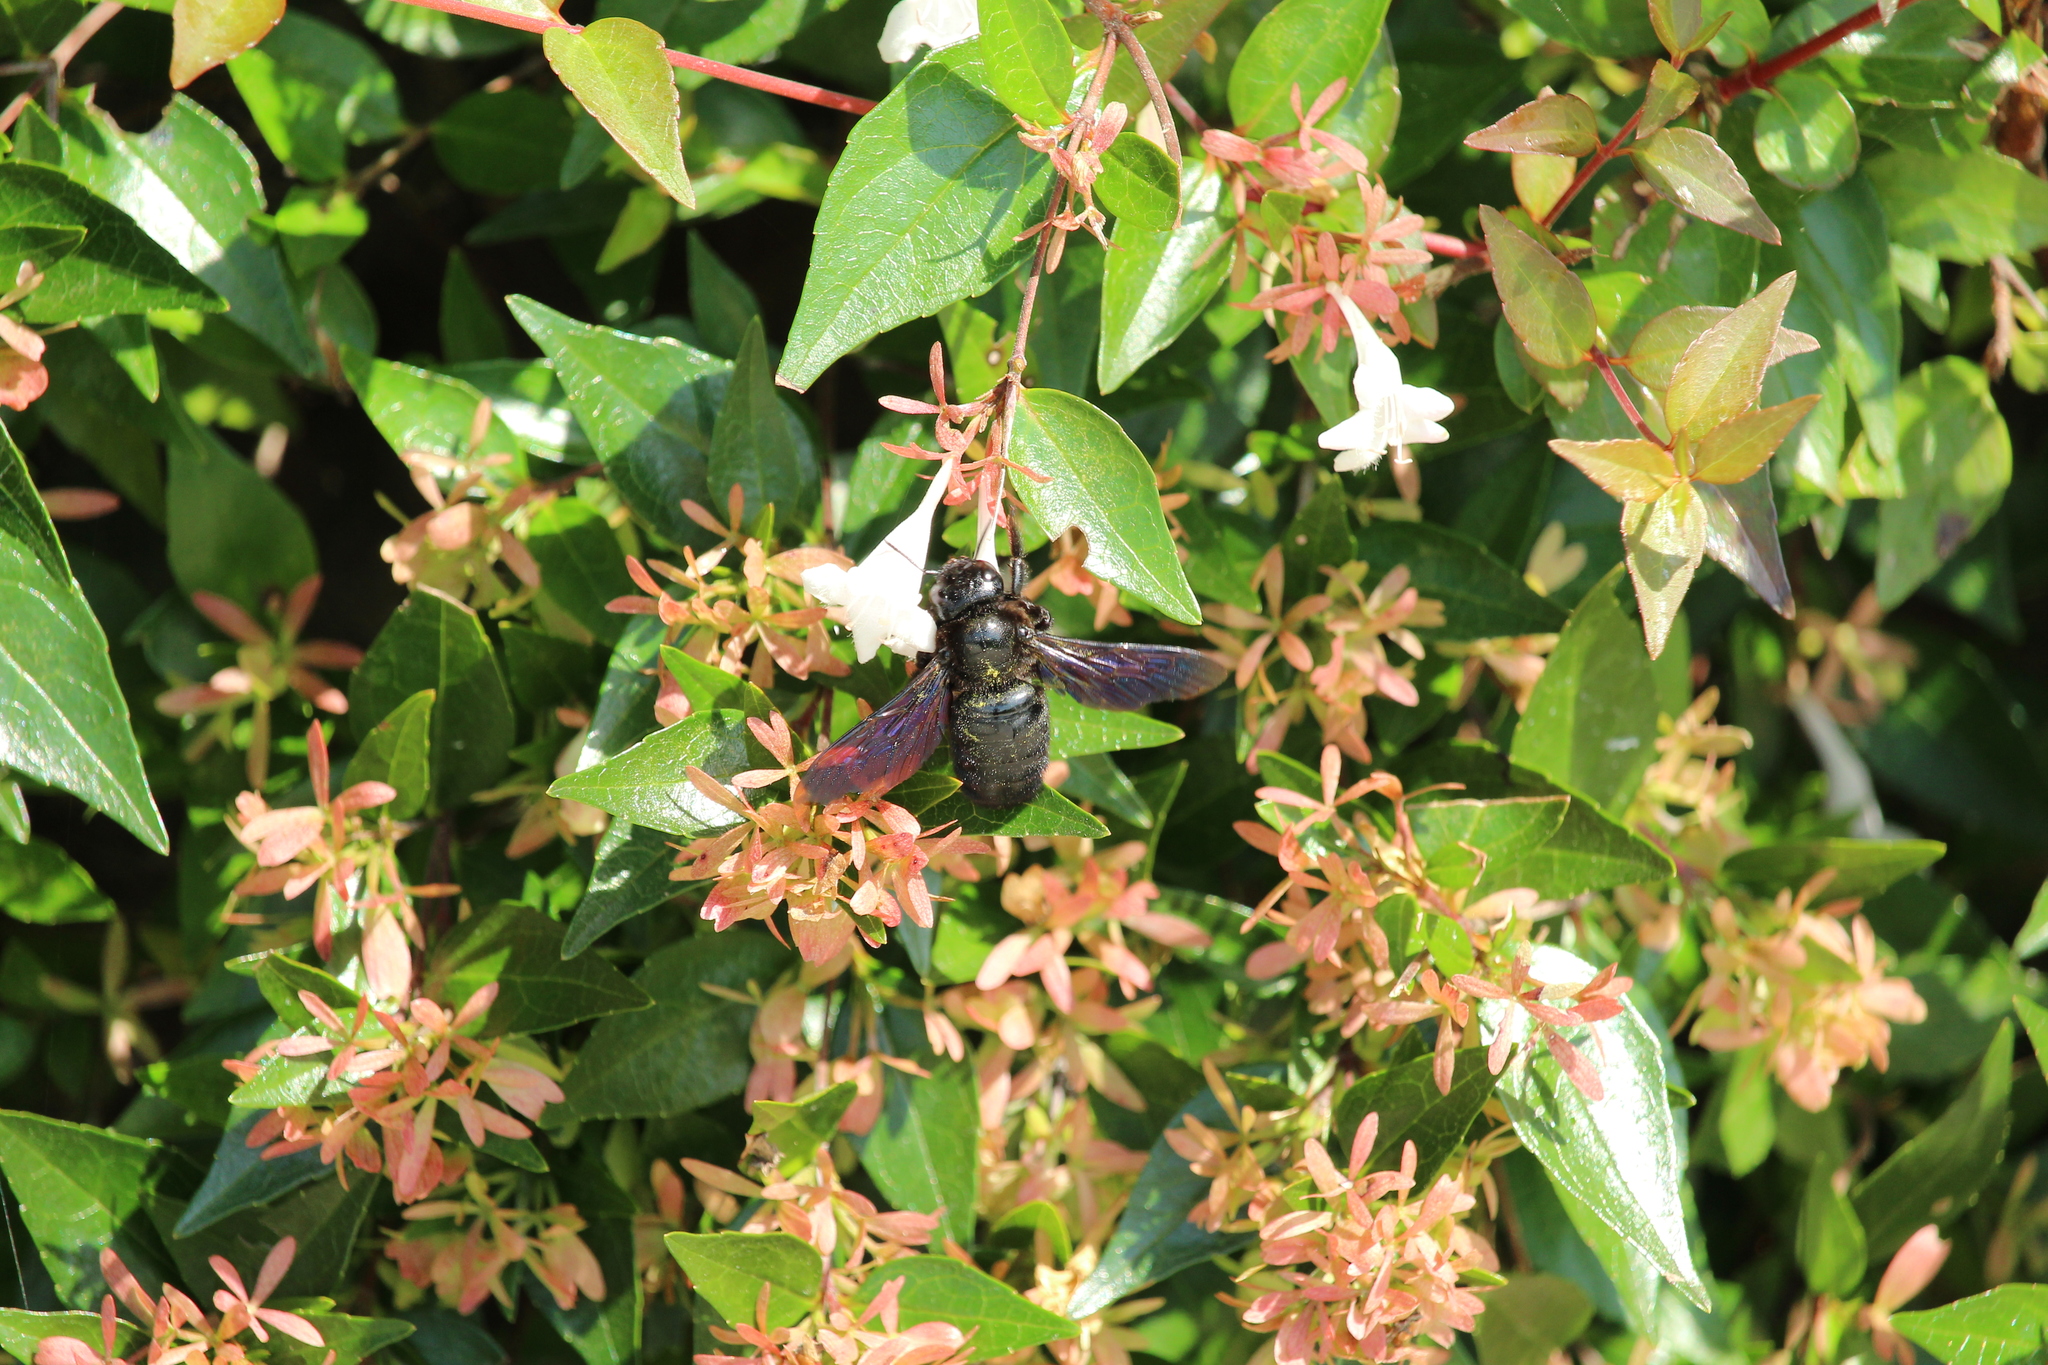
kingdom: Animalia
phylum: Arthropoda
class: Insecta
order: Hymenoptera
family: Apidae
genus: Xylocopa
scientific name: Xylocopa violacea
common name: Violet carpenter bee
